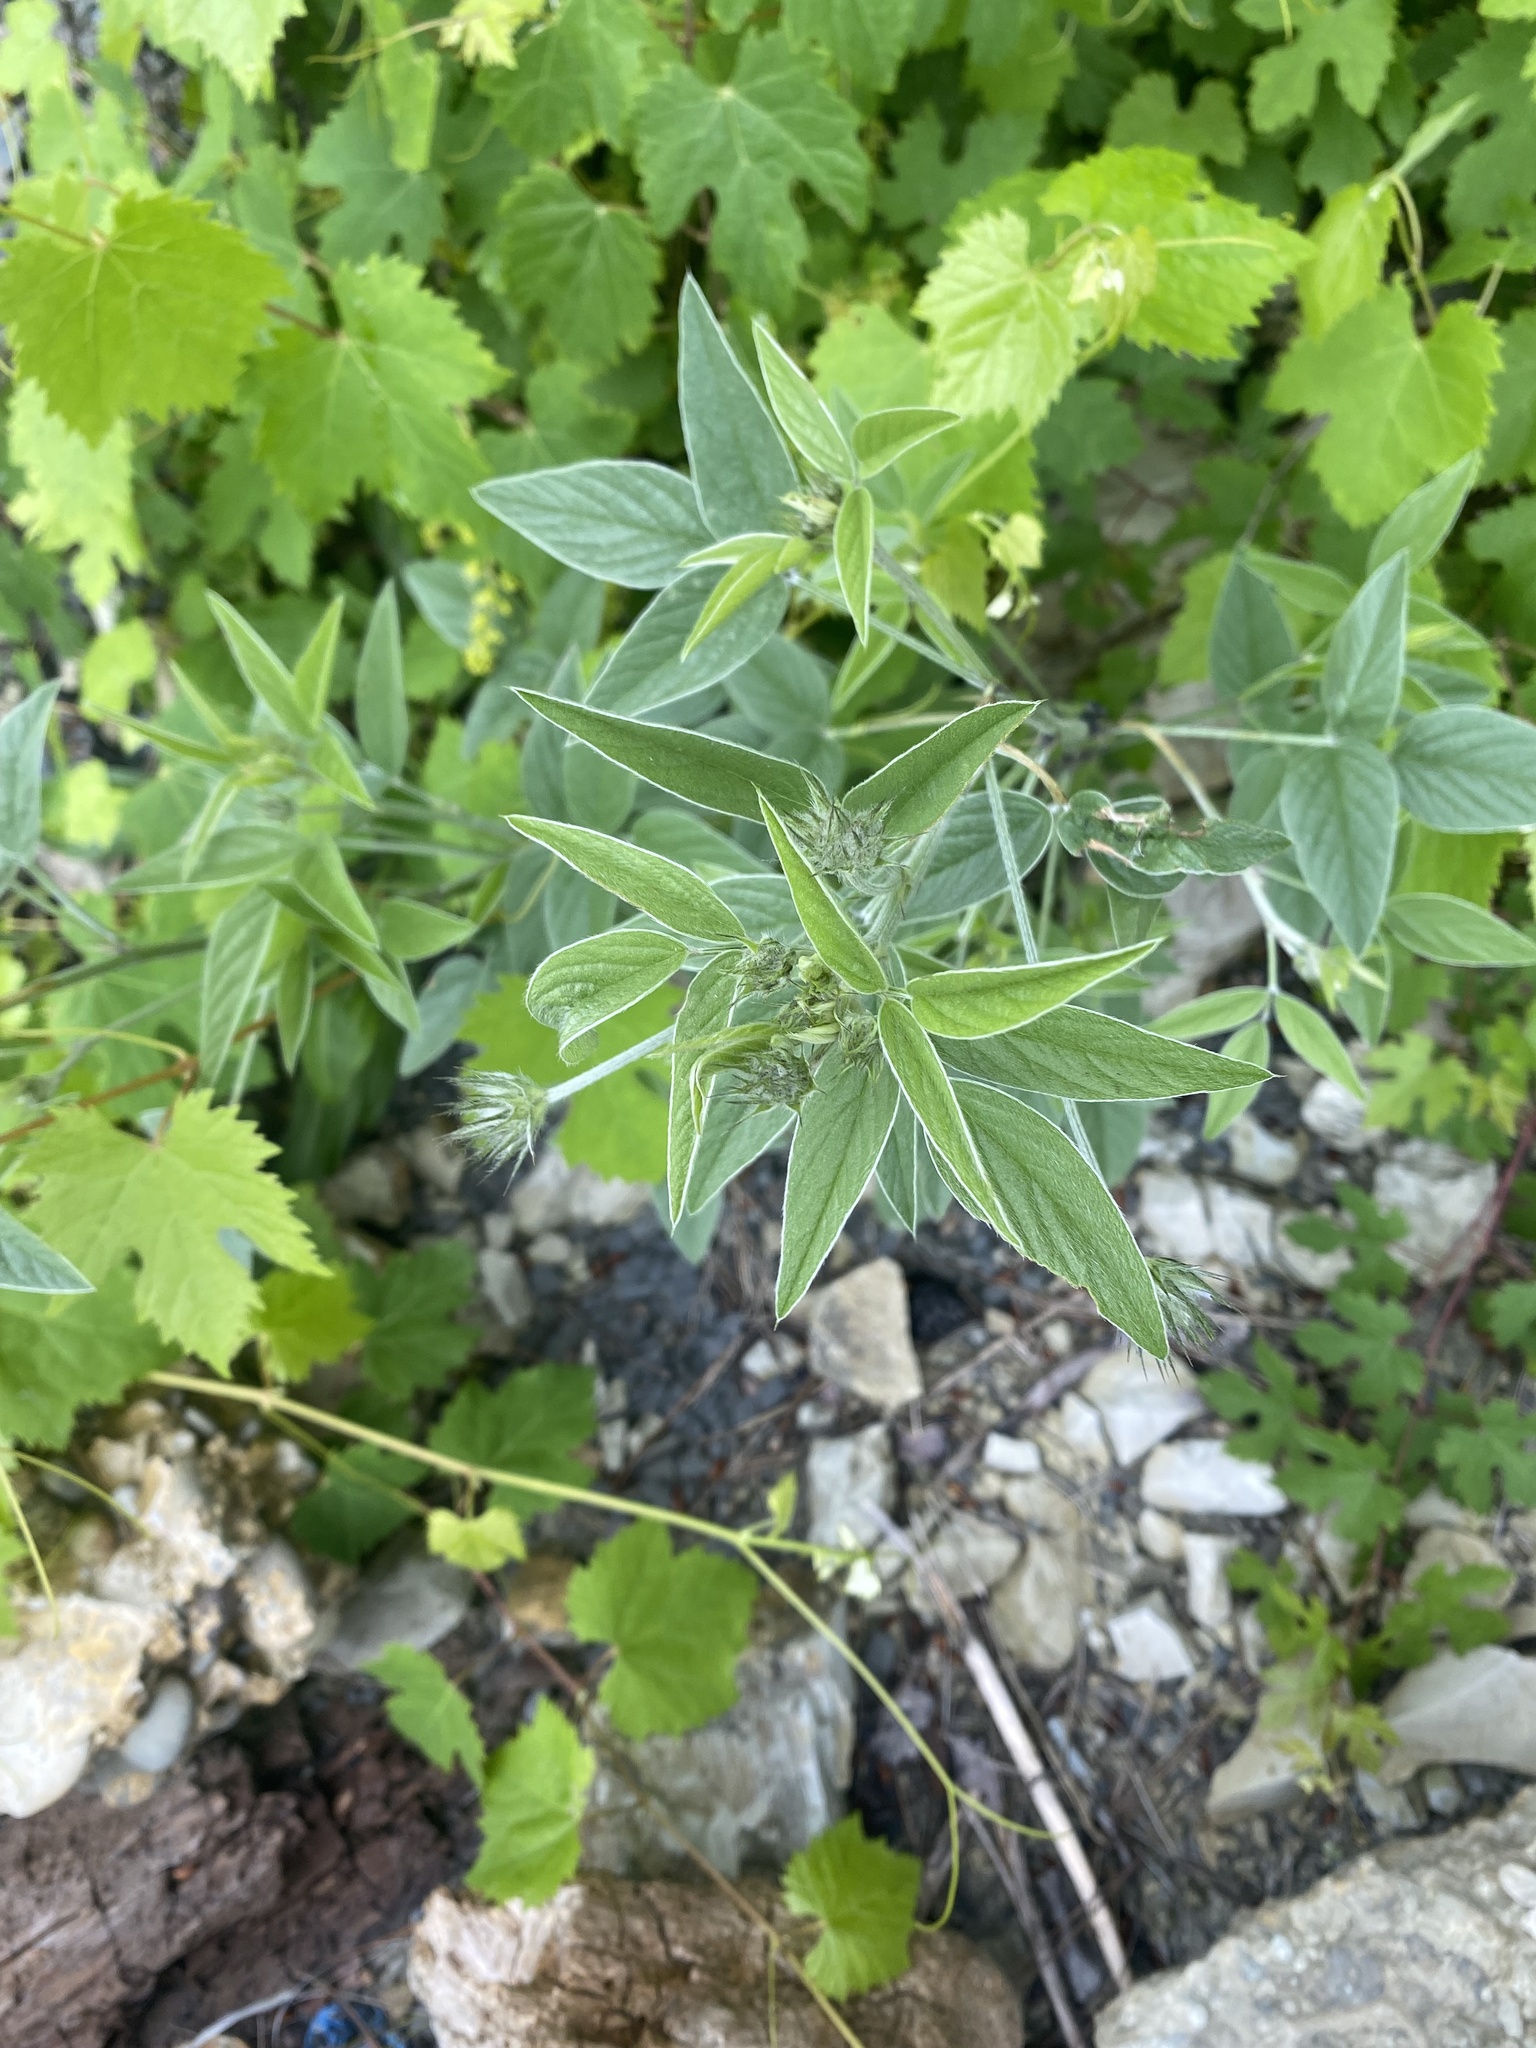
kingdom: Plantae
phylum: Tracheophyta
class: Magnoliopsida
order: Fabales
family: Fabaceae
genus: Bituminaria
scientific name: Bituminaria bituminosa
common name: Arabian pea
